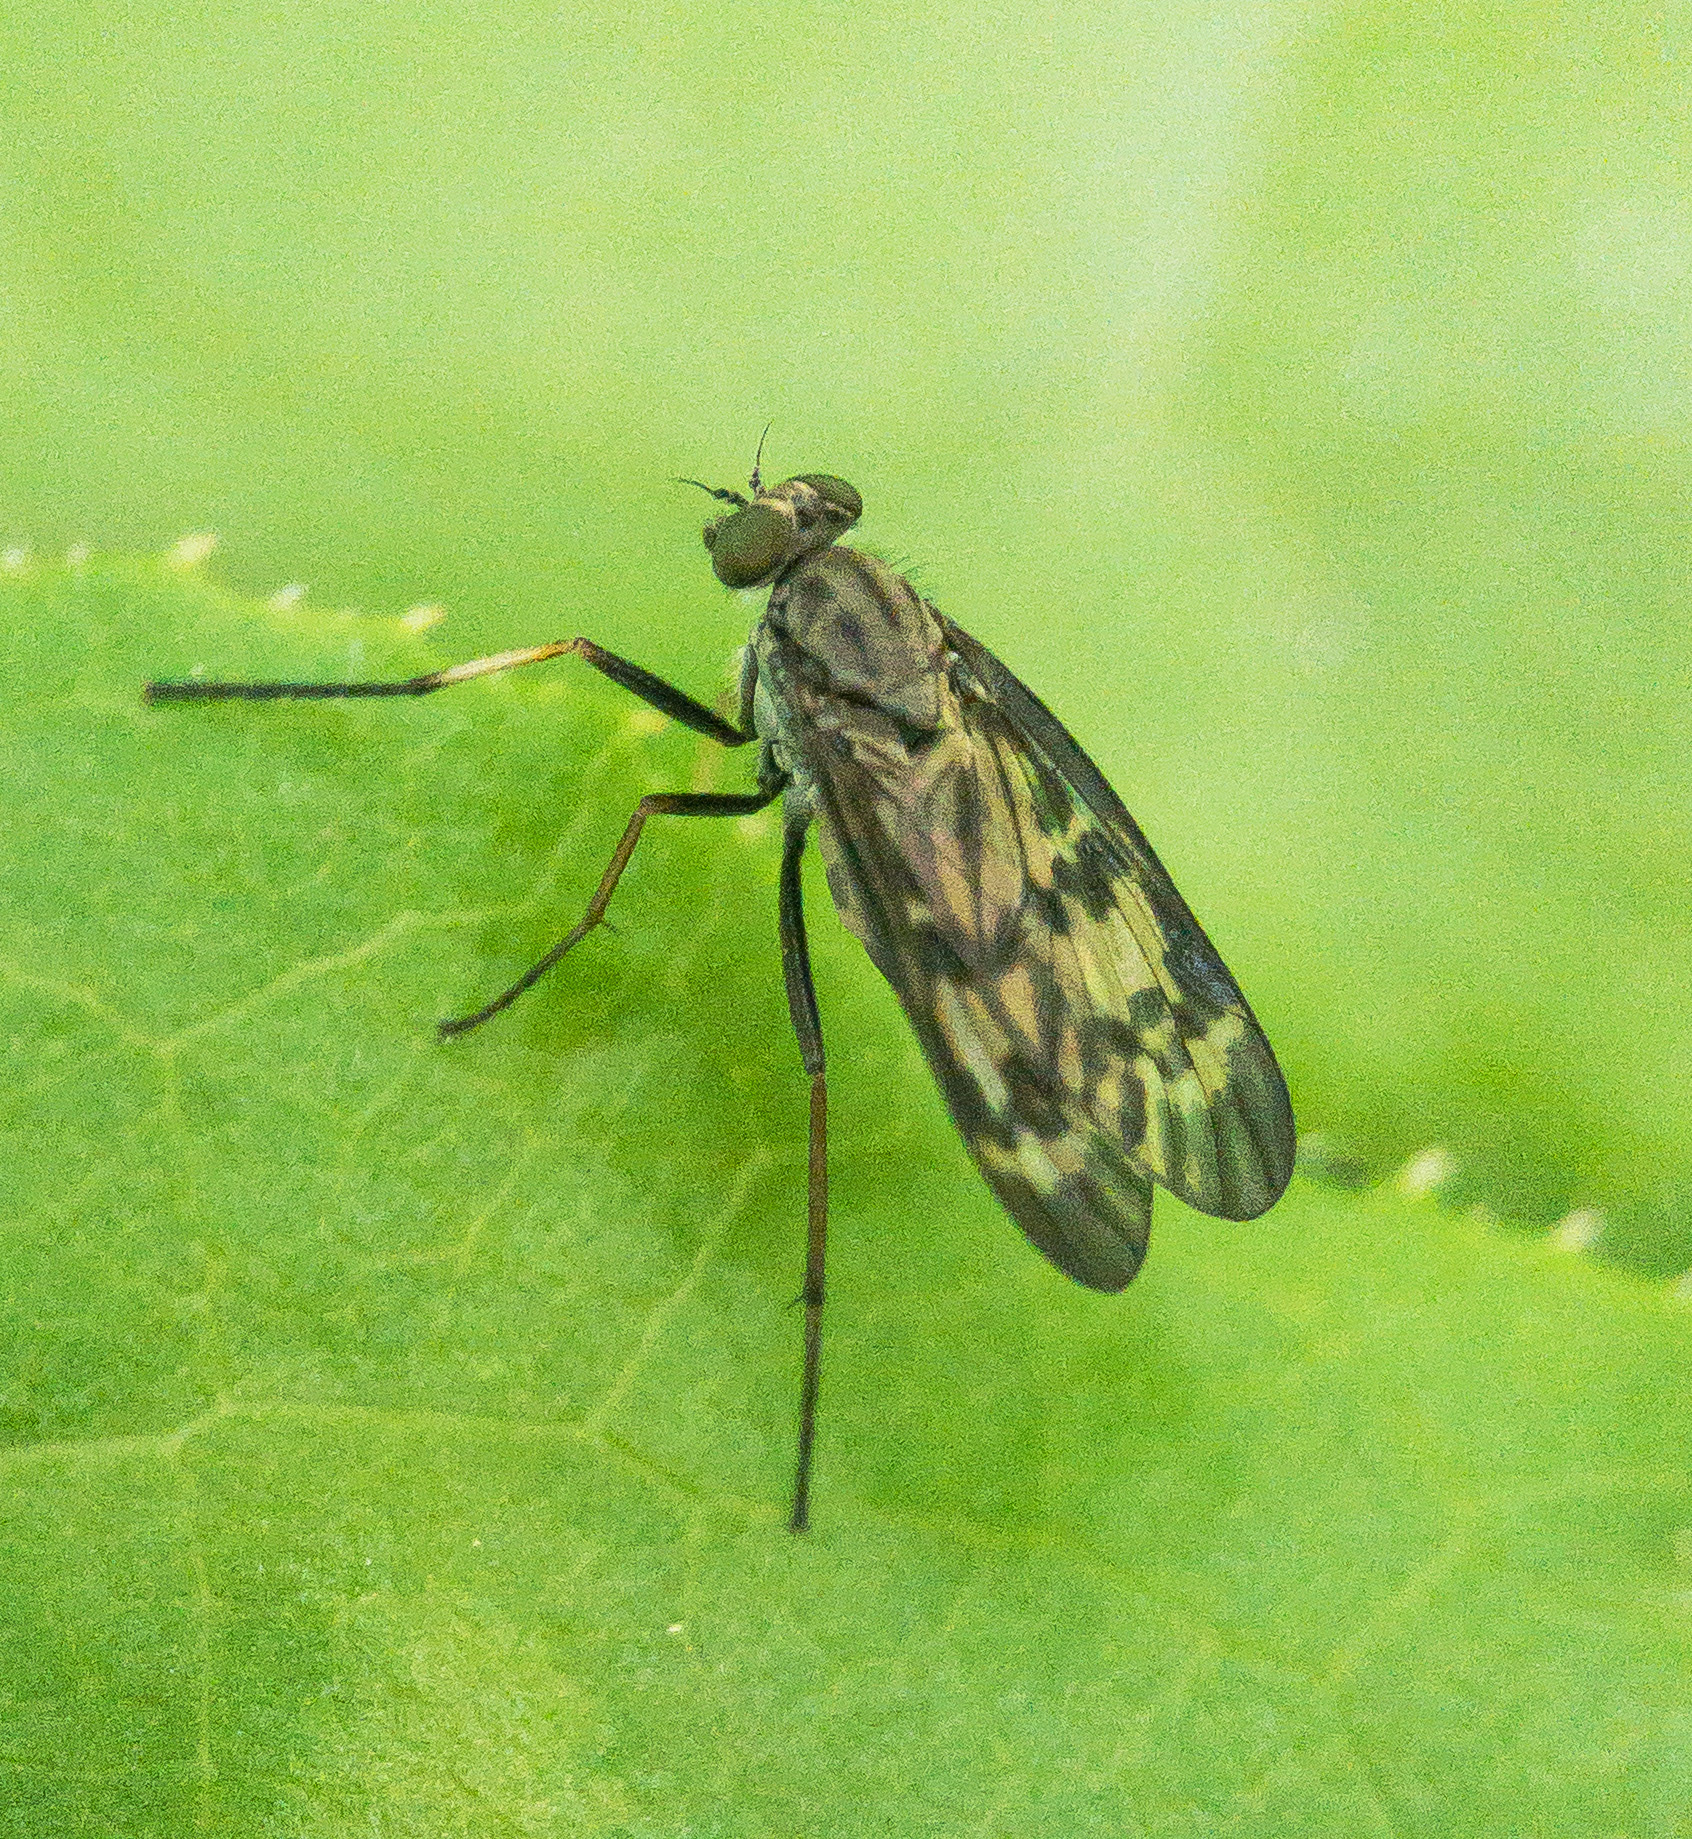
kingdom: Animalia
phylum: Arthropoda
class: Insecta
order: Diptera
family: Rhagionidae
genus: Rhagio
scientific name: Rhagio punctipennis
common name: Lesser variegated snipe fly
